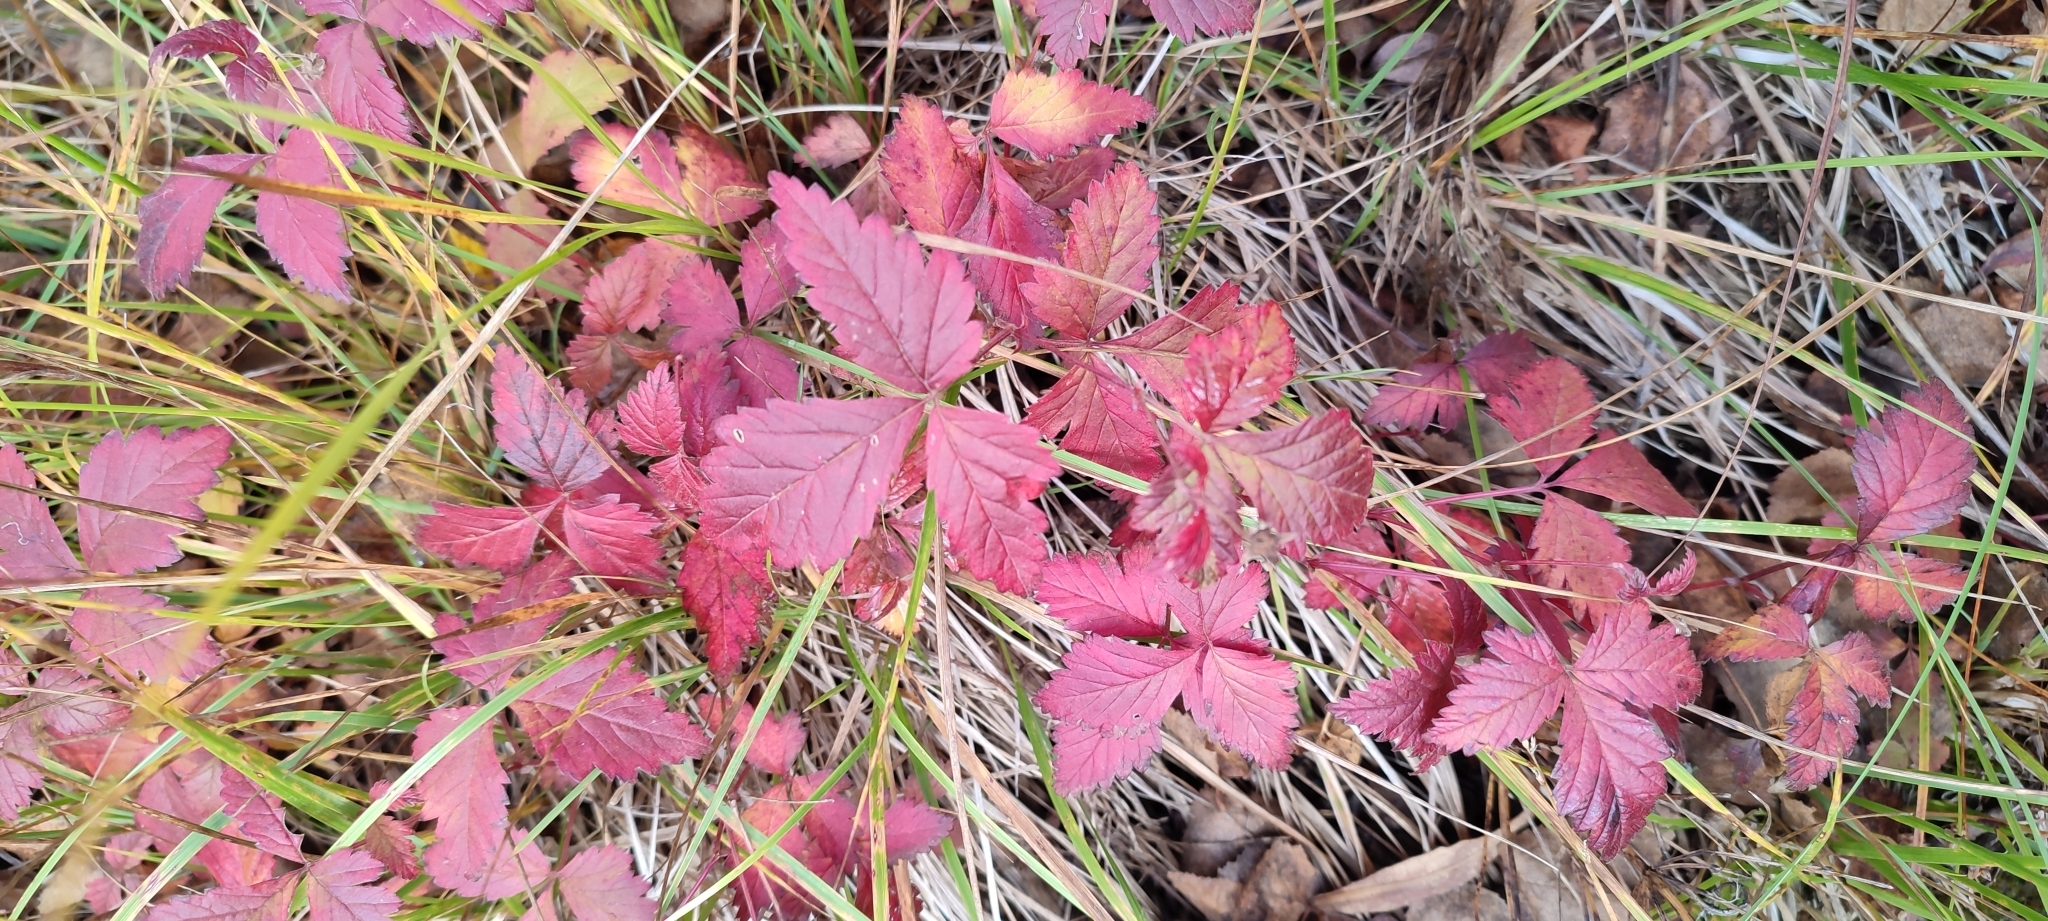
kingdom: Plantae
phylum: Tracheophyta
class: Magnoliopsida
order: Rosales
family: Rosaceae
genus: Rubus
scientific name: Rubus arcticus
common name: Arctic bramble
